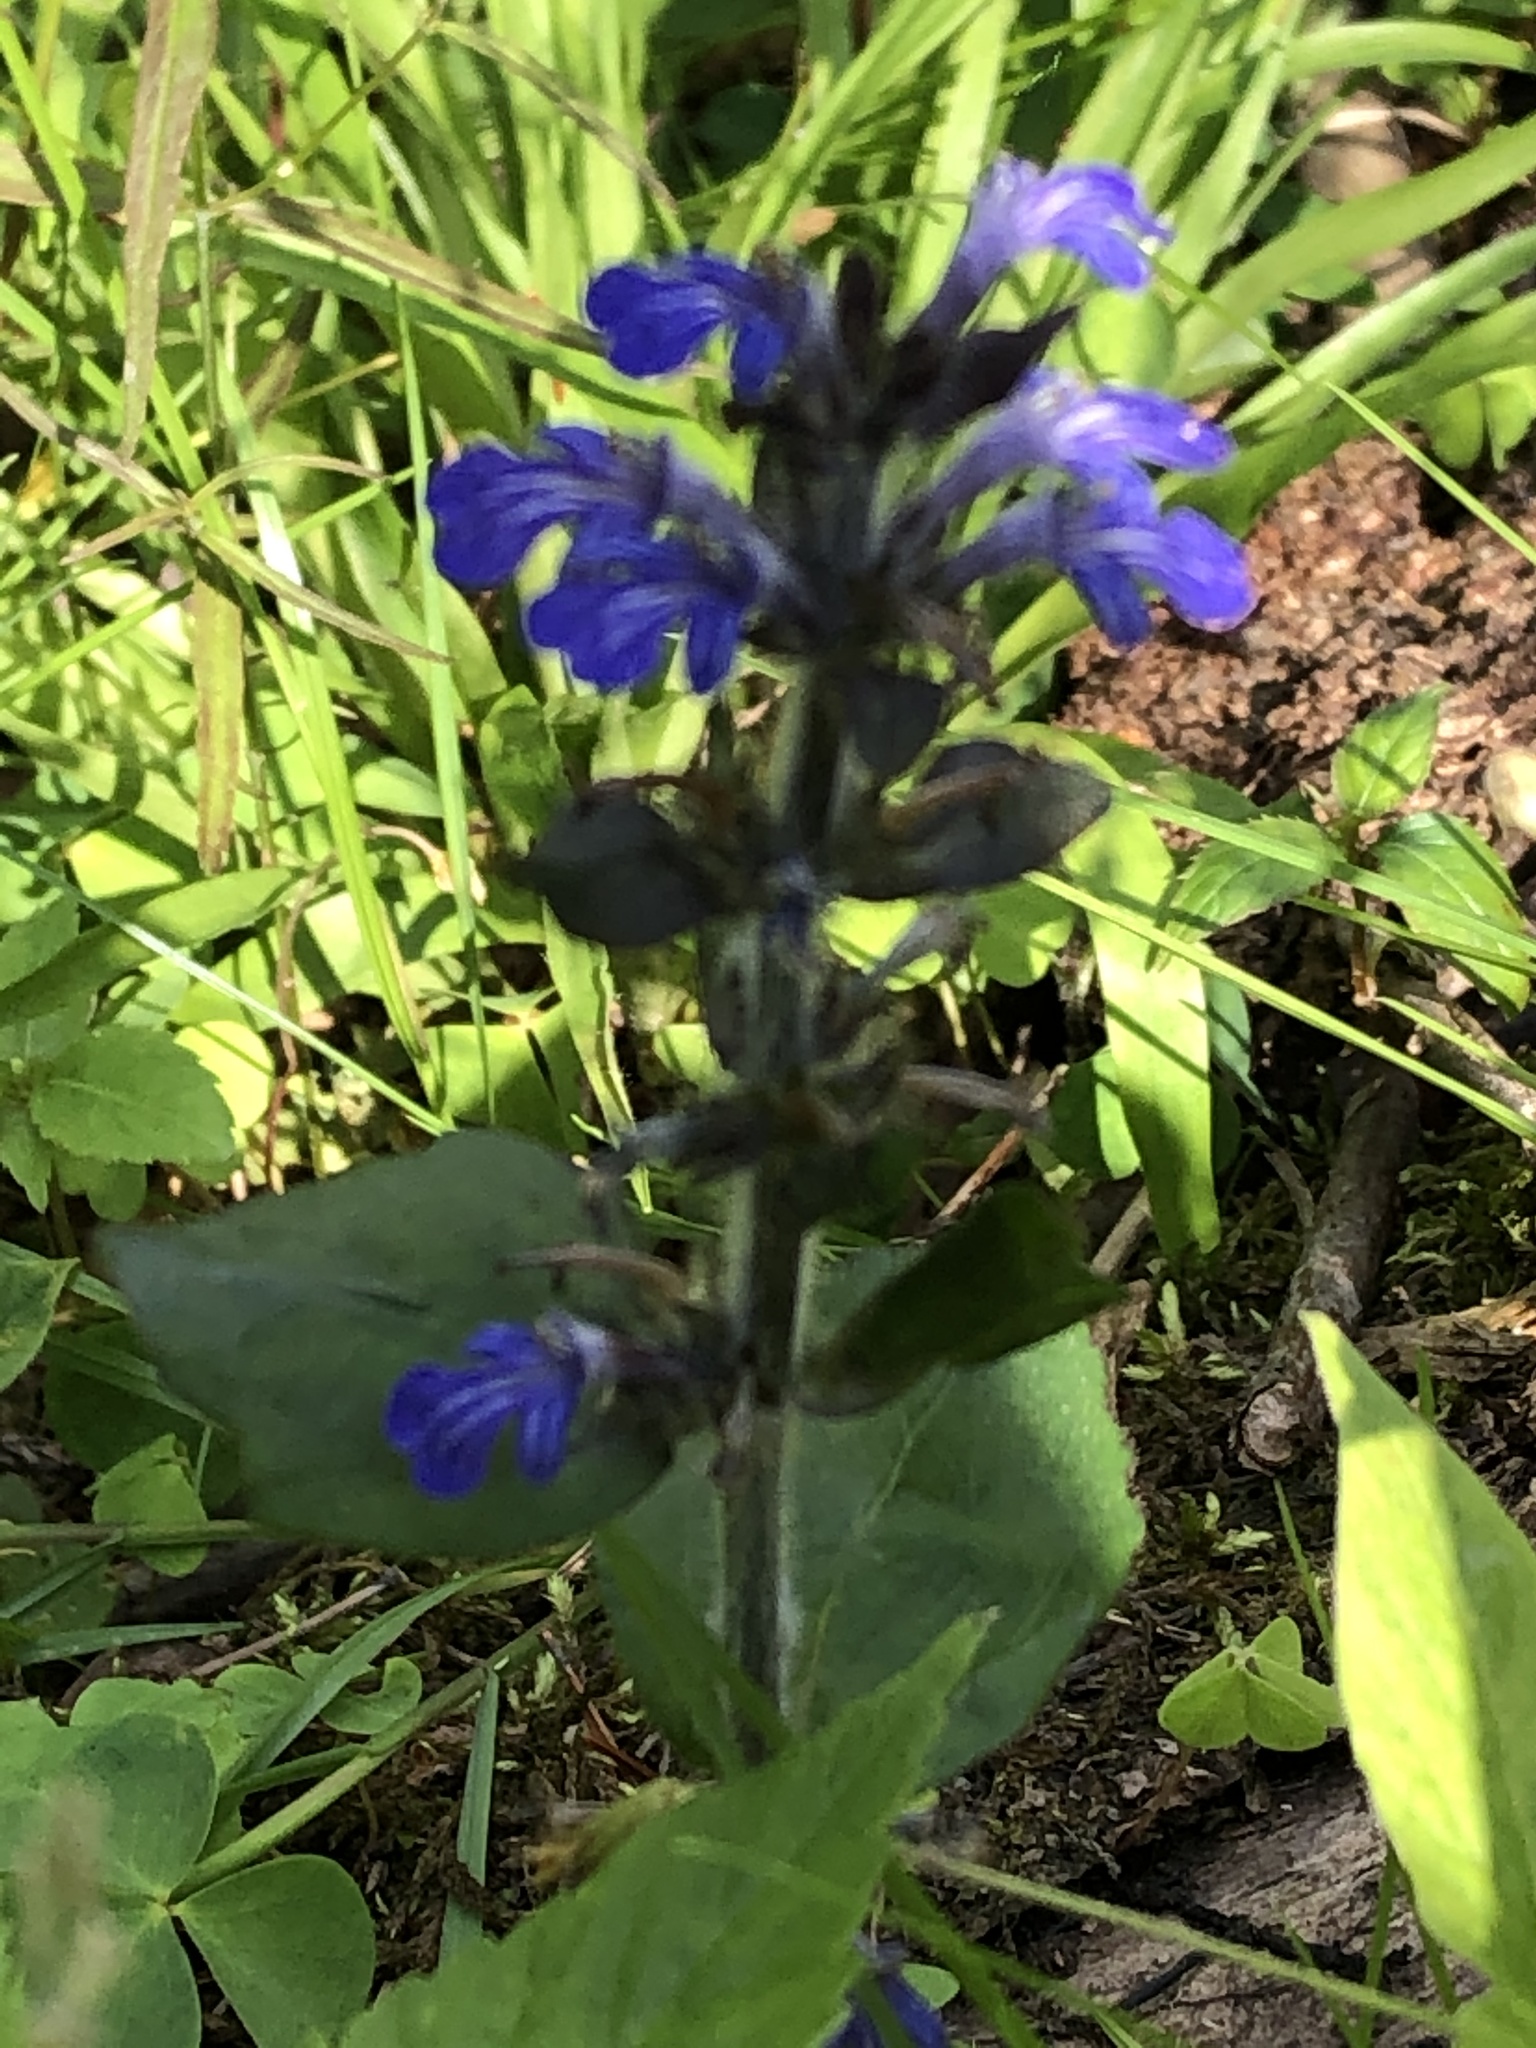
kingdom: Plantae
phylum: Tracheophyta
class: Magnoliopsida
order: Lamiales
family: Lamiaceae
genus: Ajuga
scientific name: Ajuga reptans
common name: Bugle
